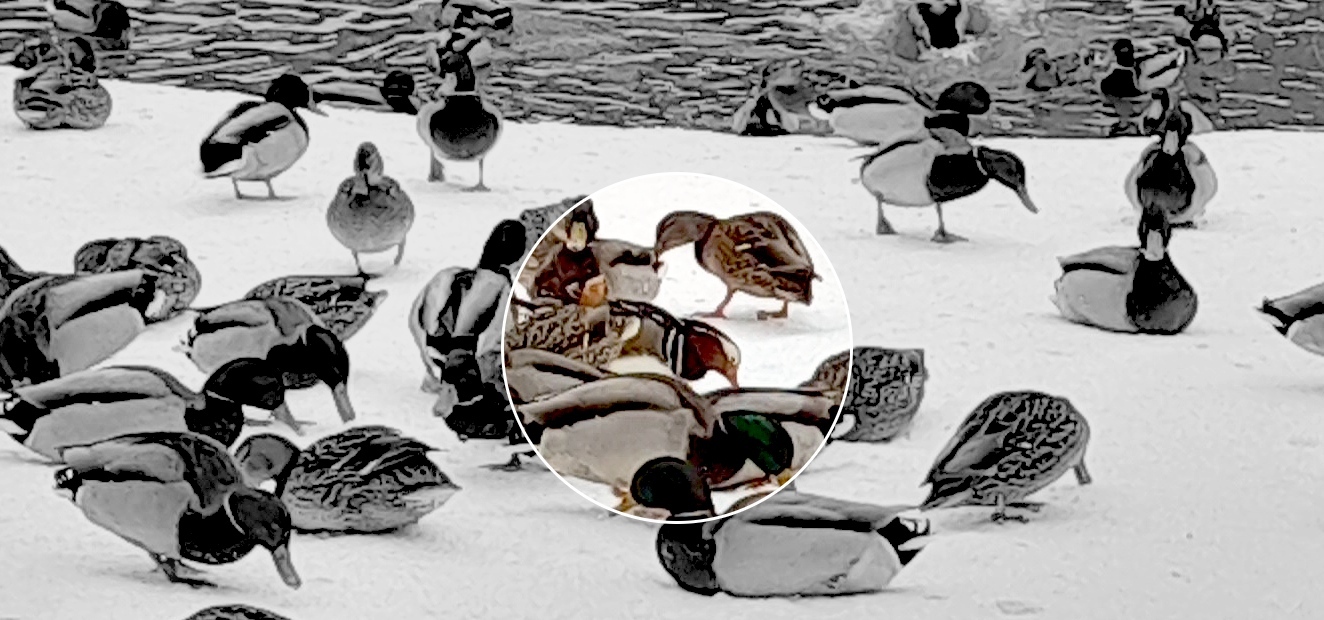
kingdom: Animalia
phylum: Chordata
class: Aves
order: Anseriformes
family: Anatidae
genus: Aix
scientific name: Aix galericulata
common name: Mandarin duck
